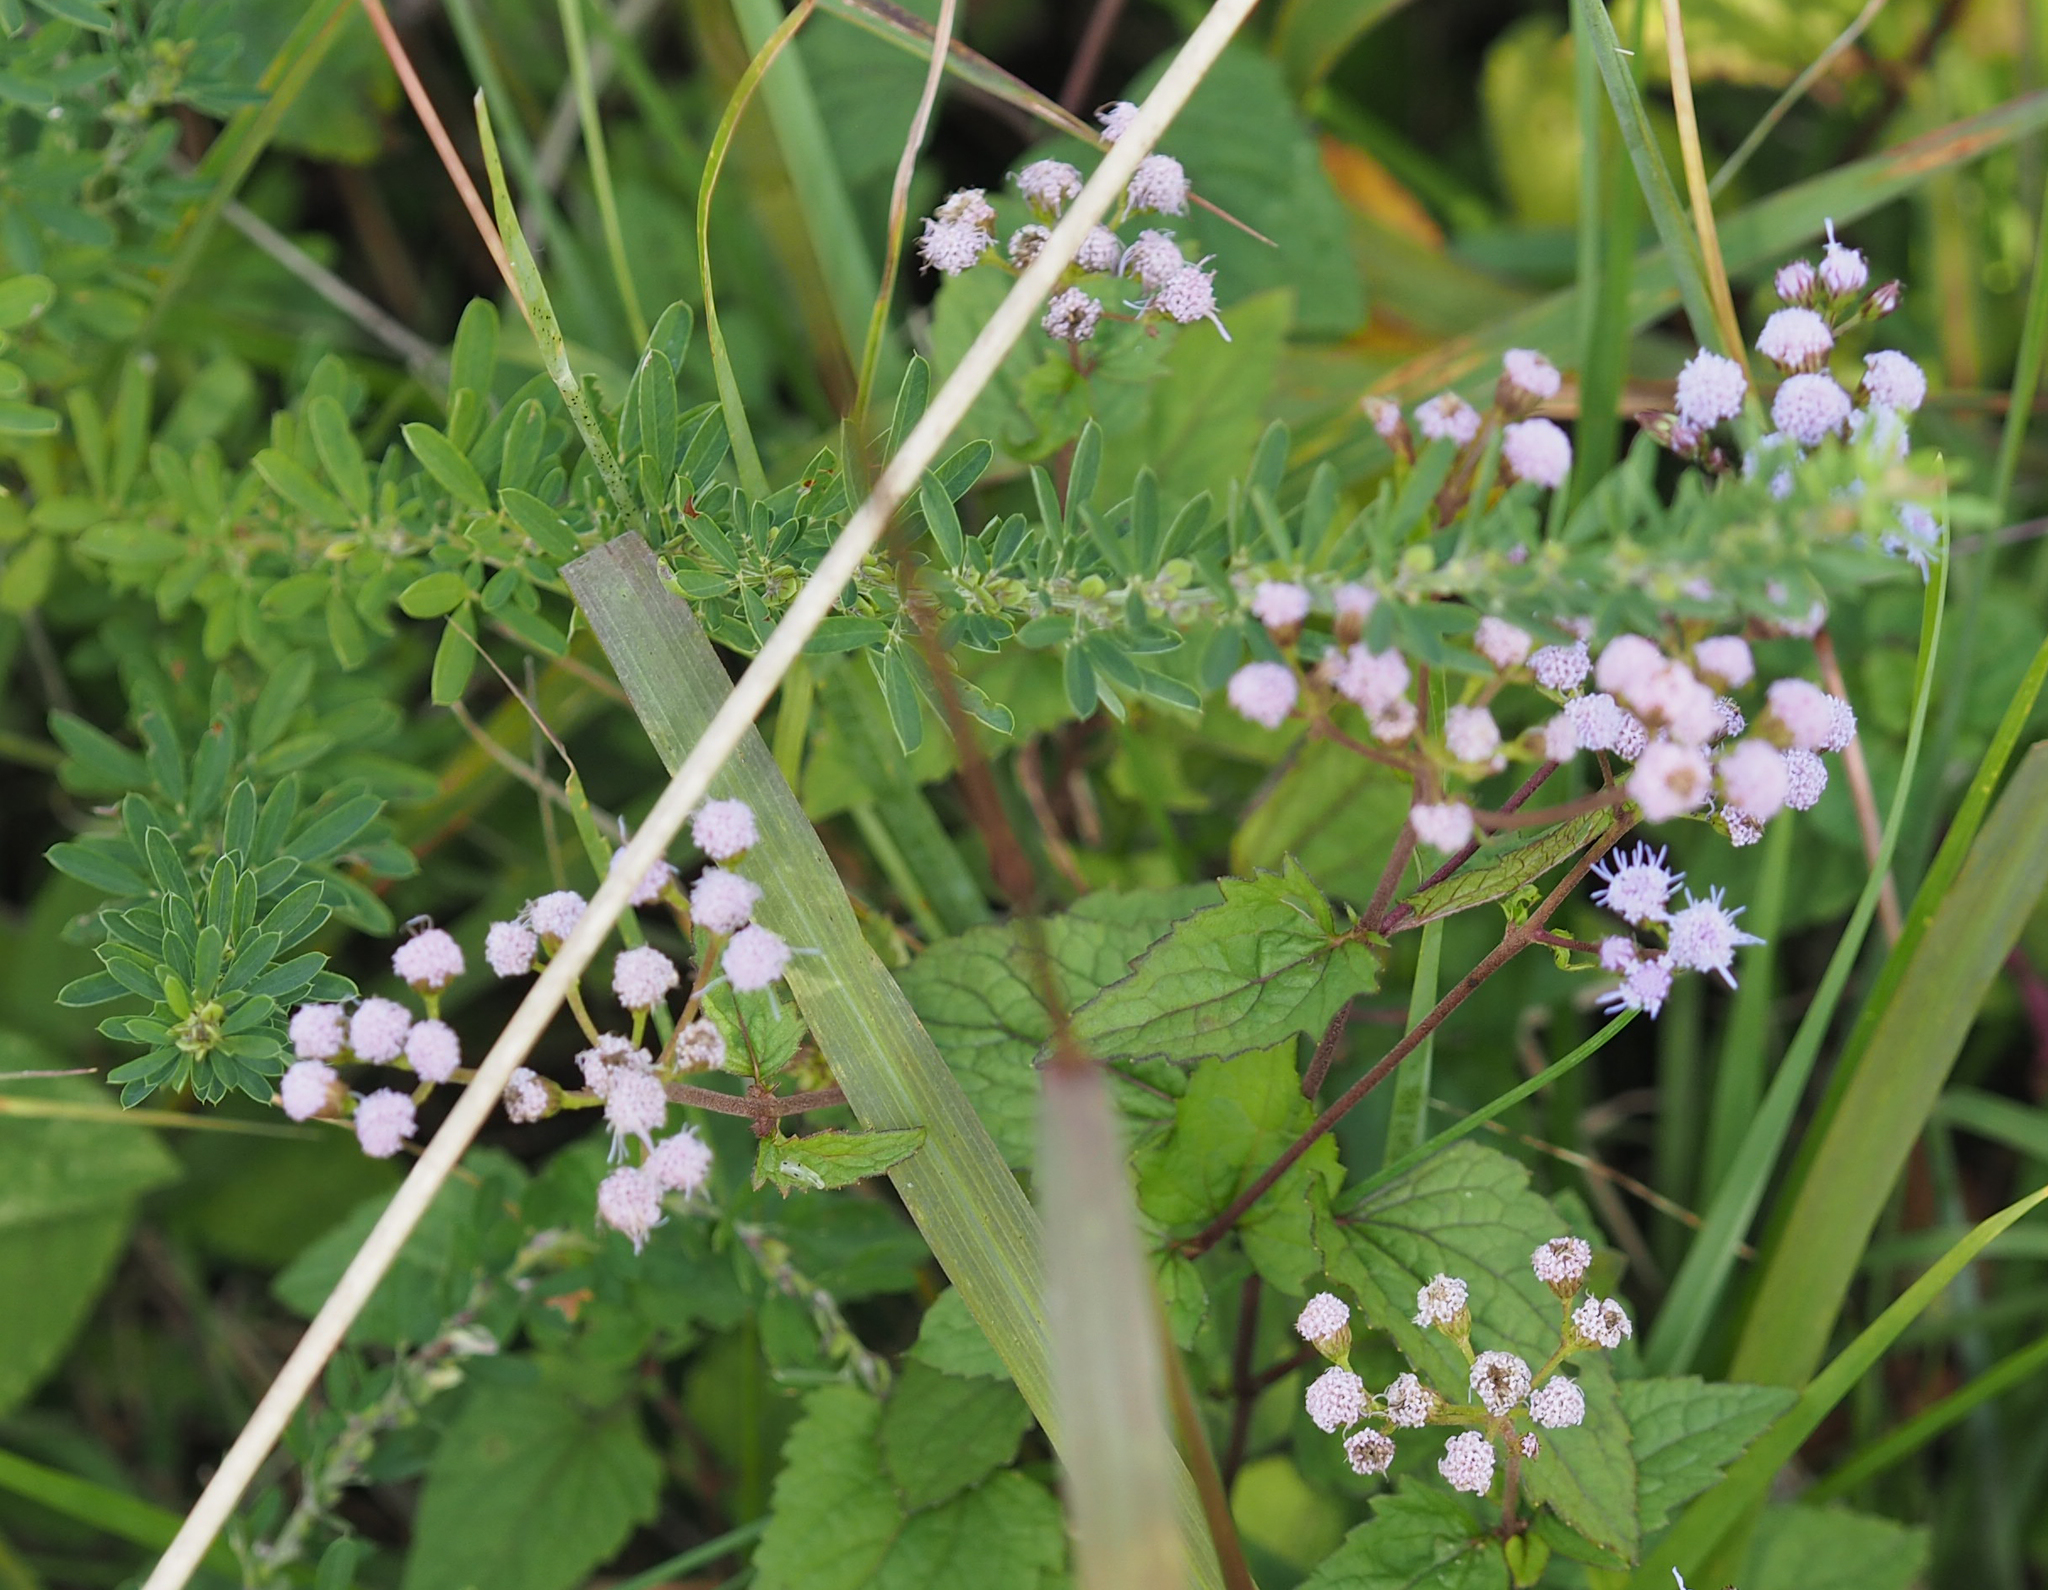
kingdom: Plantae
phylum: Tracheophyta
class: Magnoliopsida
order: Asterales
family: Asteraceae
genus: Conoclinium
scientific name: Conoclinium coelestinum
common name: Blue mistflower
